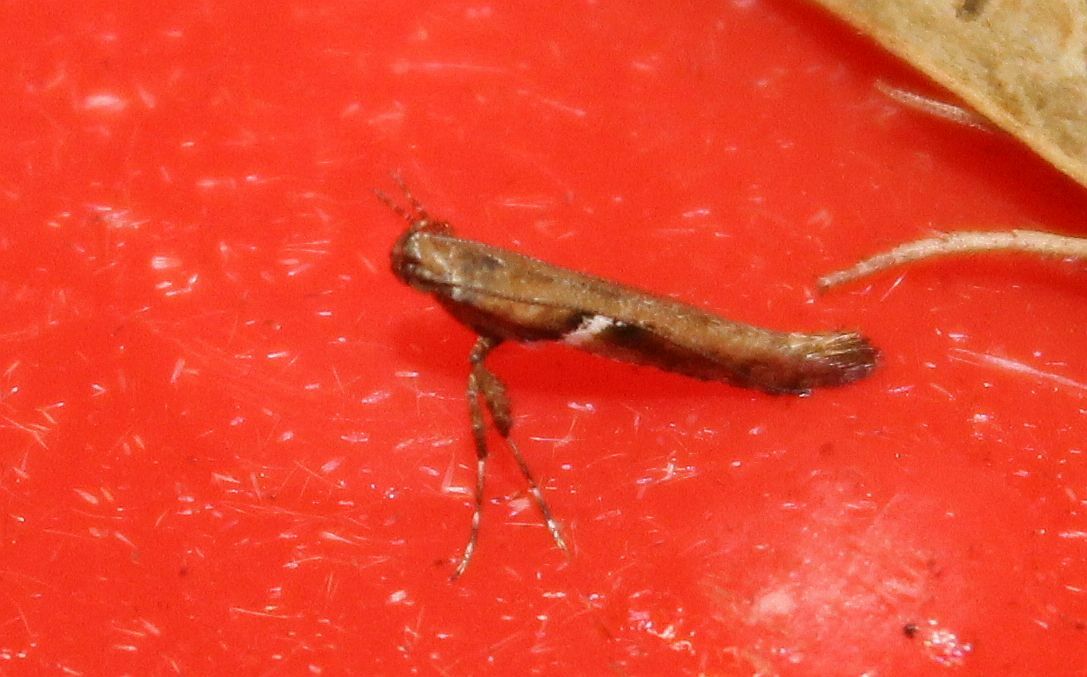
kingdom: Animalia
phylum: Arthropoda
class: Insecta
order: Lepidoptera
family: Gracillariidae
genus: Caloptilia
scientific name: Caloptilia stigmatella
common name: White-triangle slender
